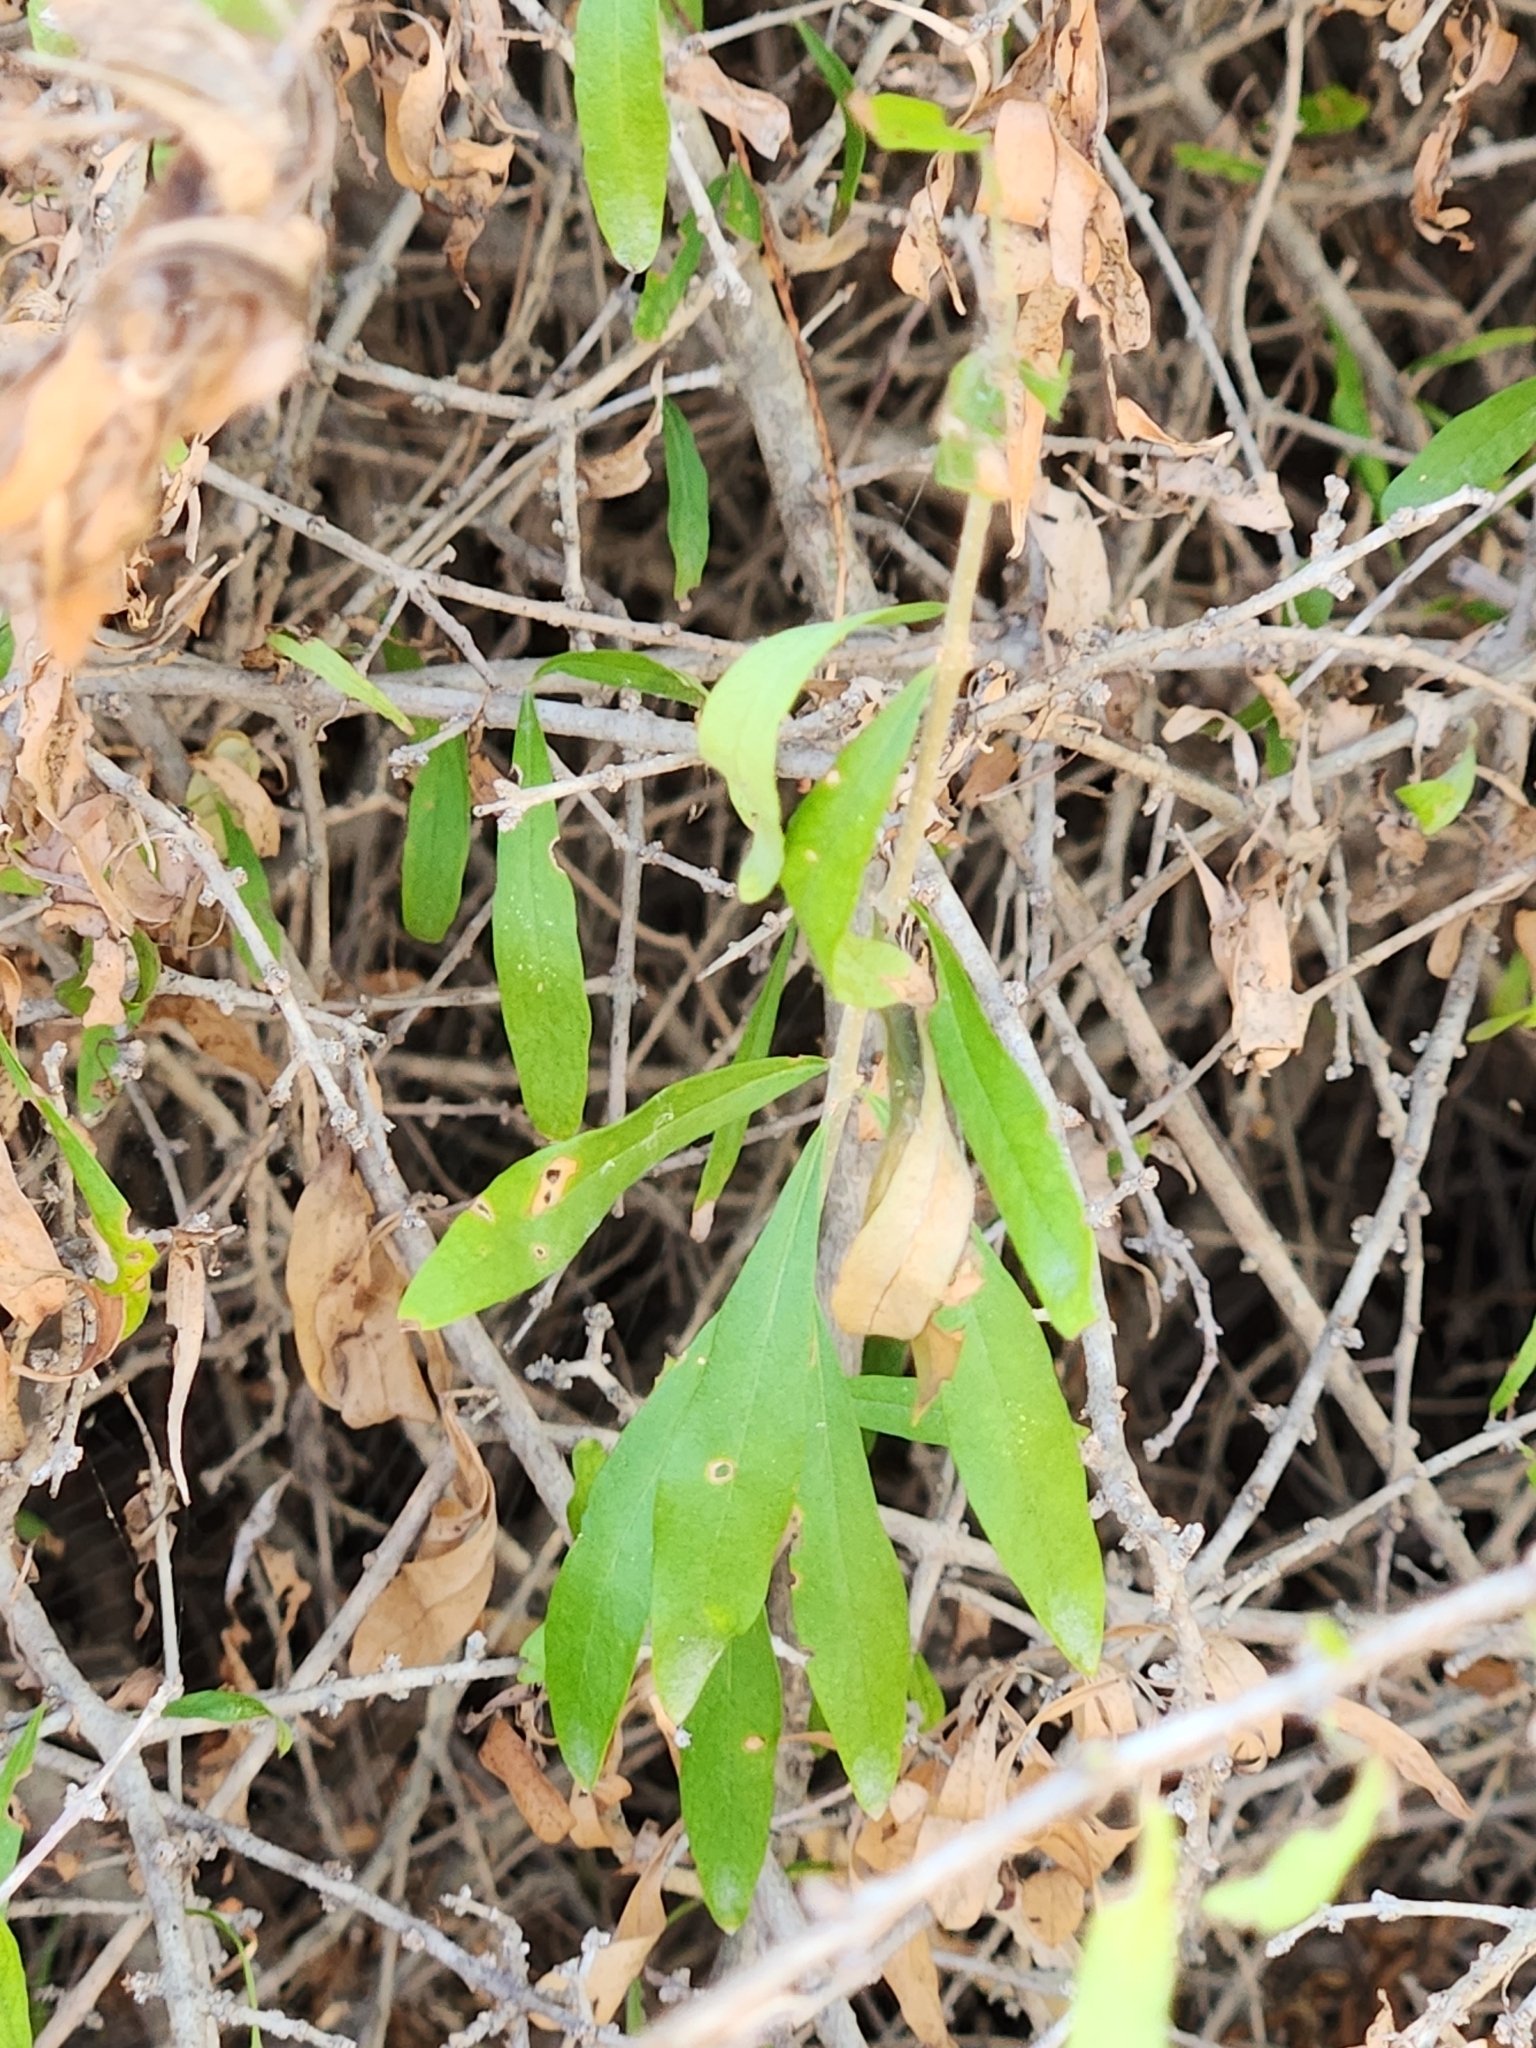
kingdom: Plantae
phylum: Tracheophyta
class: Magnoliopsida
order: Lamiales
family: Oleaceae
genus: Forestiera
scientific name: Forestiera angustifolia
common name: Elbowbush
